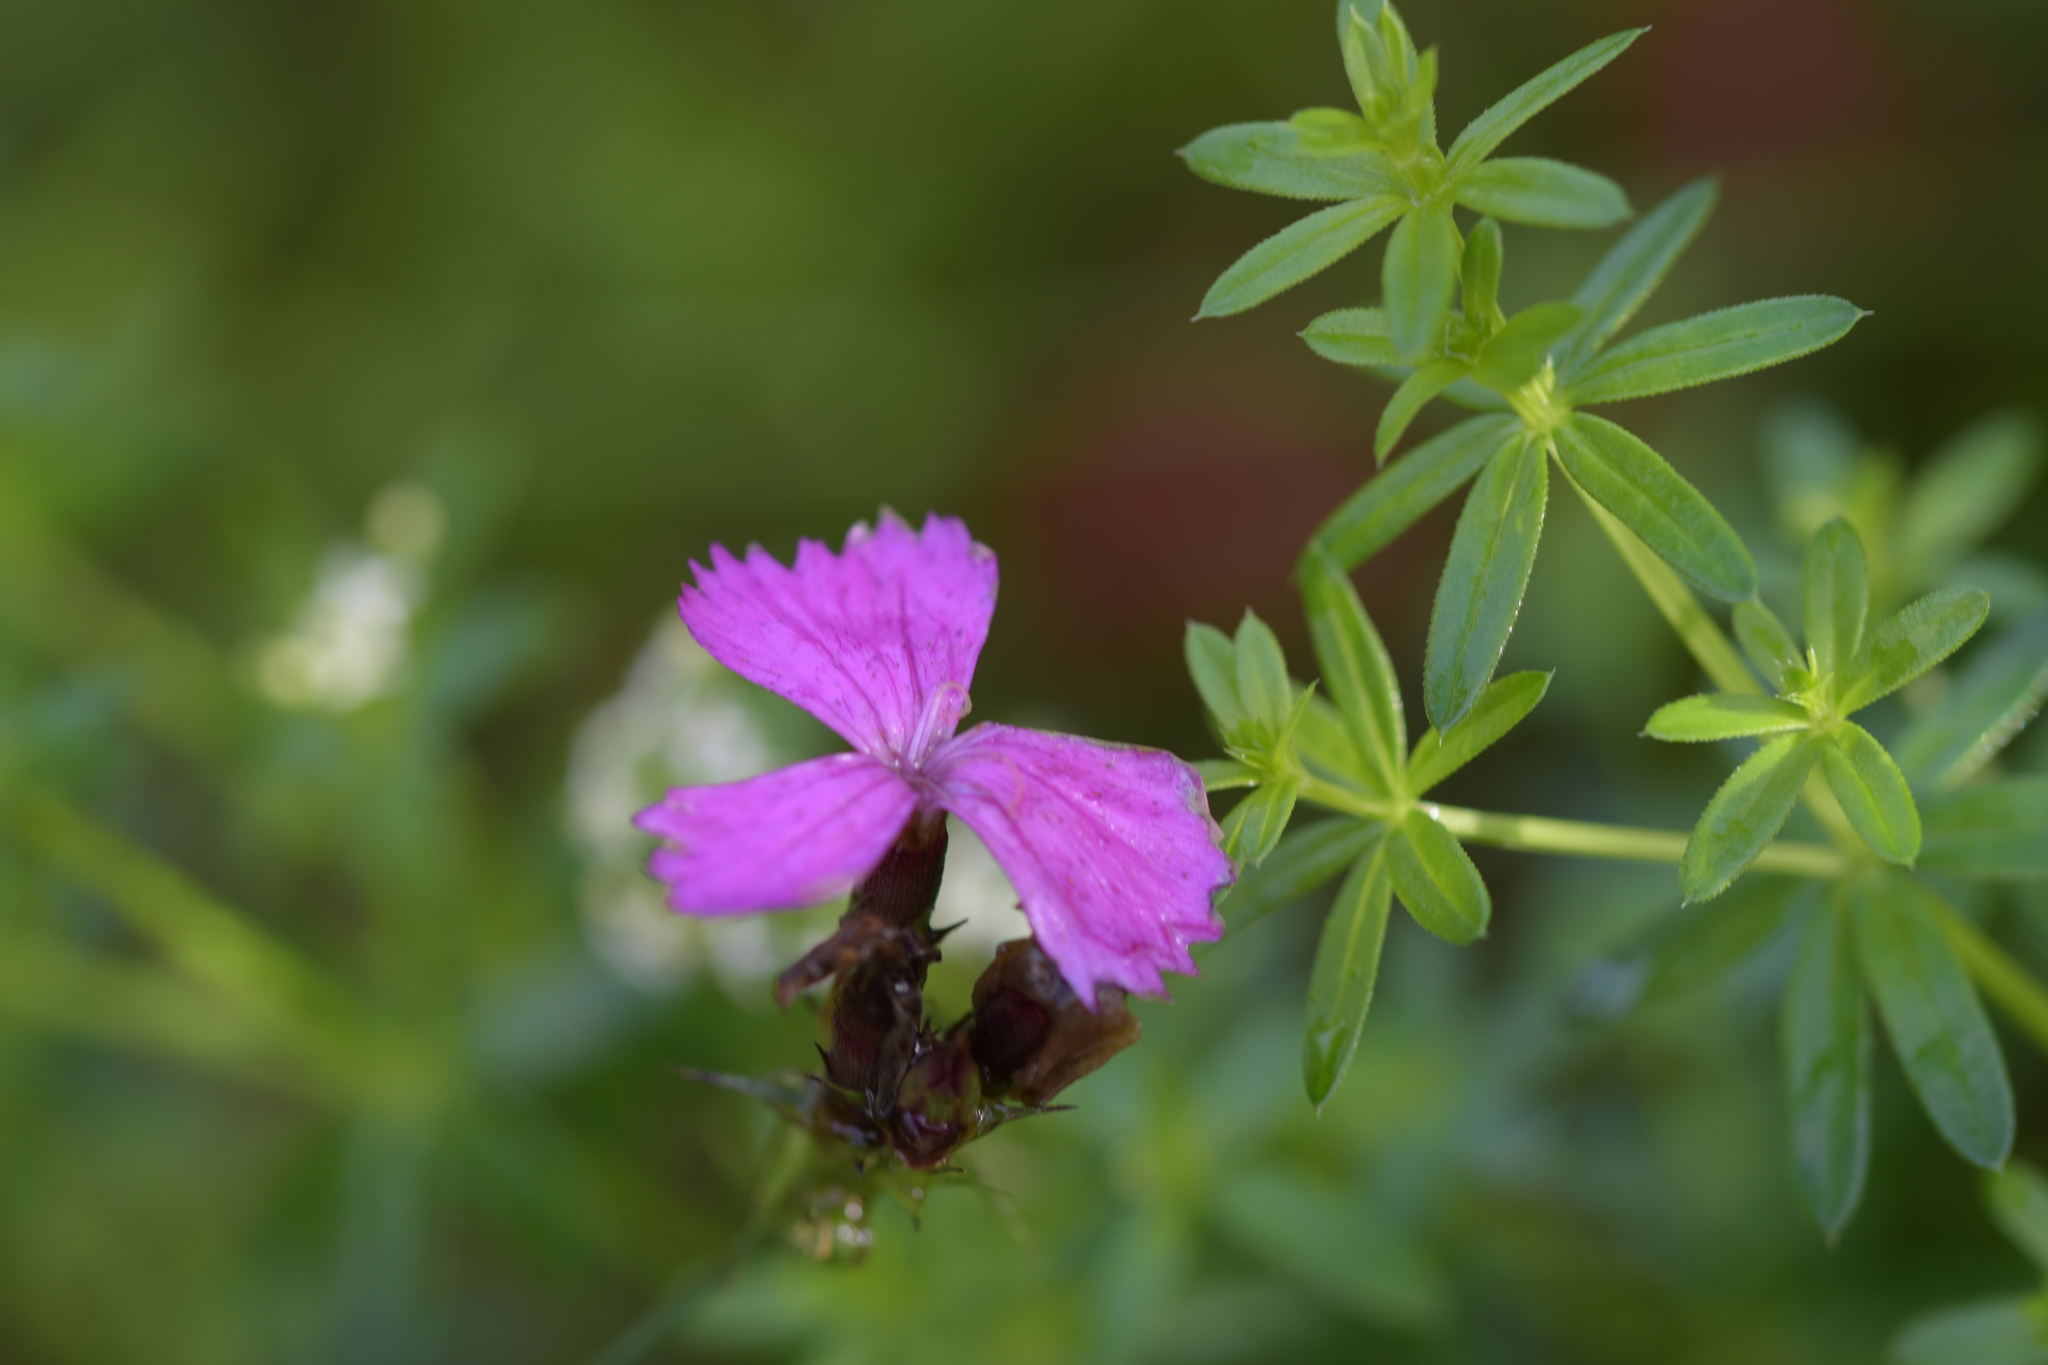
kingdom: Plantae
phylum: Tracheophyta
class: Magnoliopsida
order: Caryophyllales
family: Caryophyllaceae
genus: Dianthus
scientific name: Dianthus carthusianorum
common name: Carthusian pink
